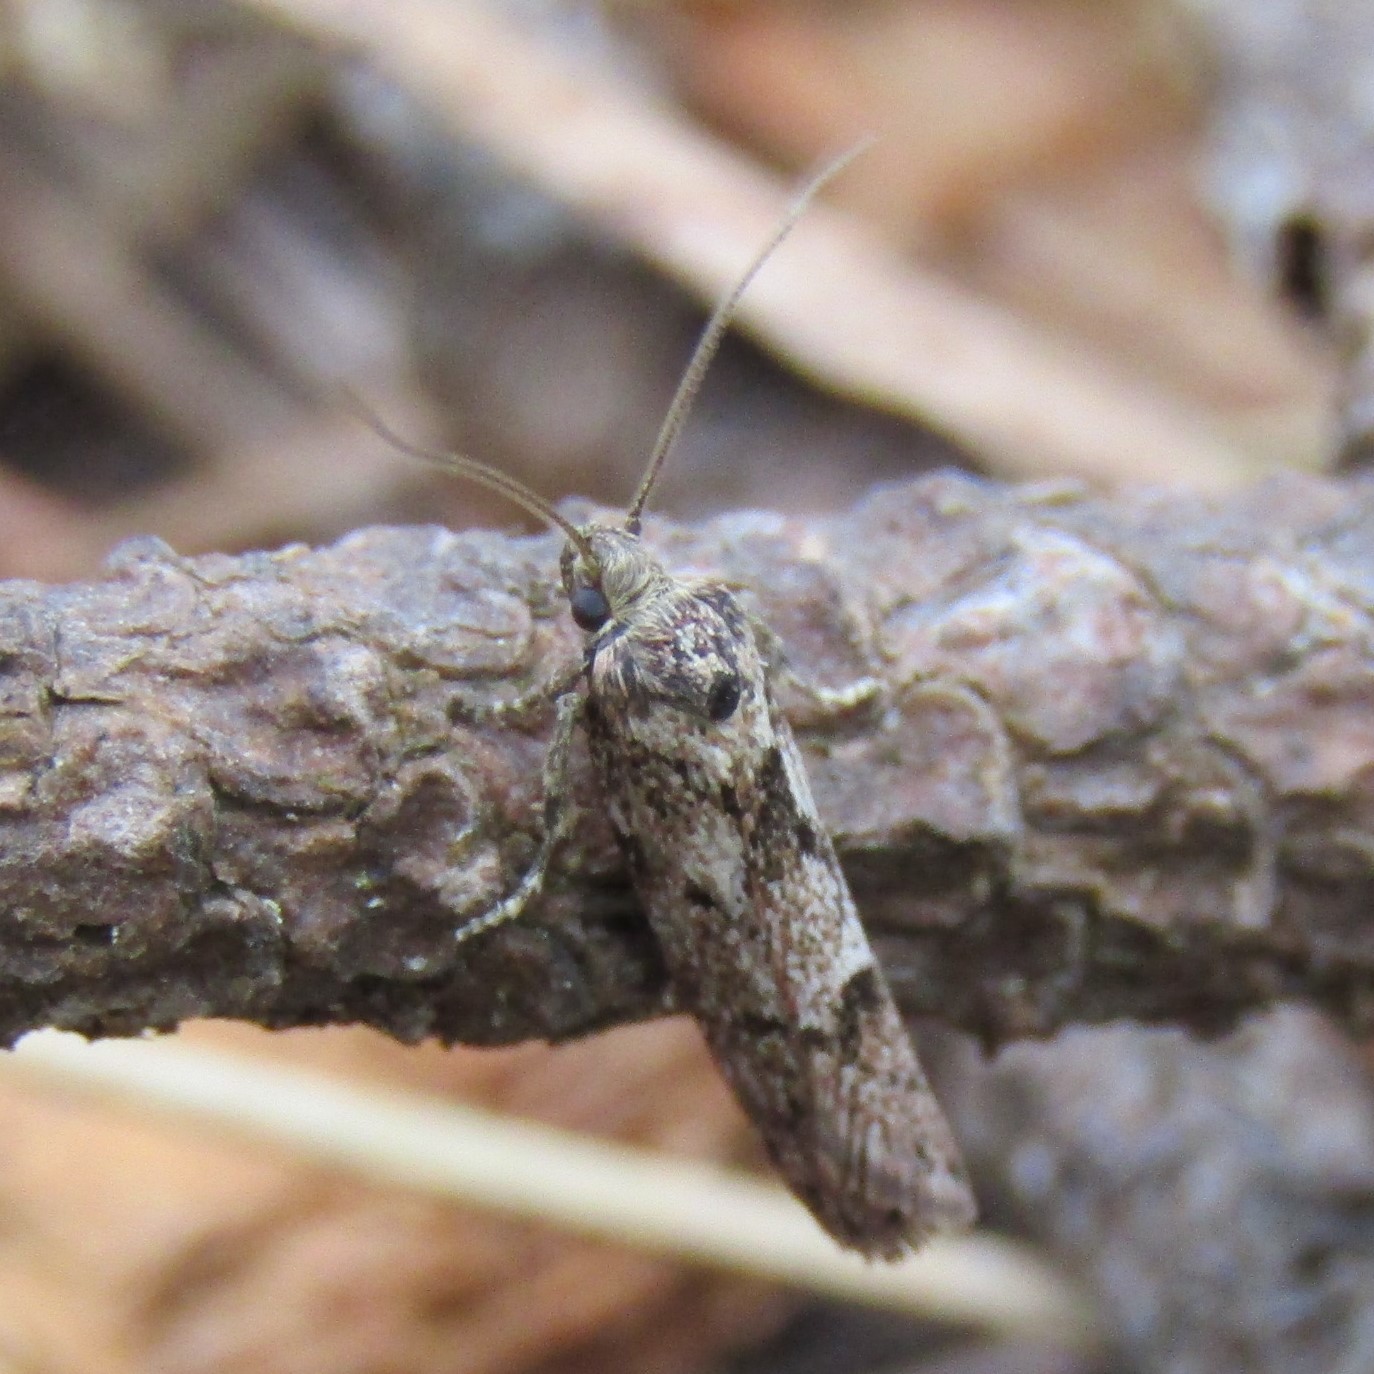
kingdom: Animalia
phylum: Arthropoda
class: Insecta
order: Lepidoptera
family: Oecophoridae
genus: Chersadaula
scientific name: Chersadaula ochrogastra
